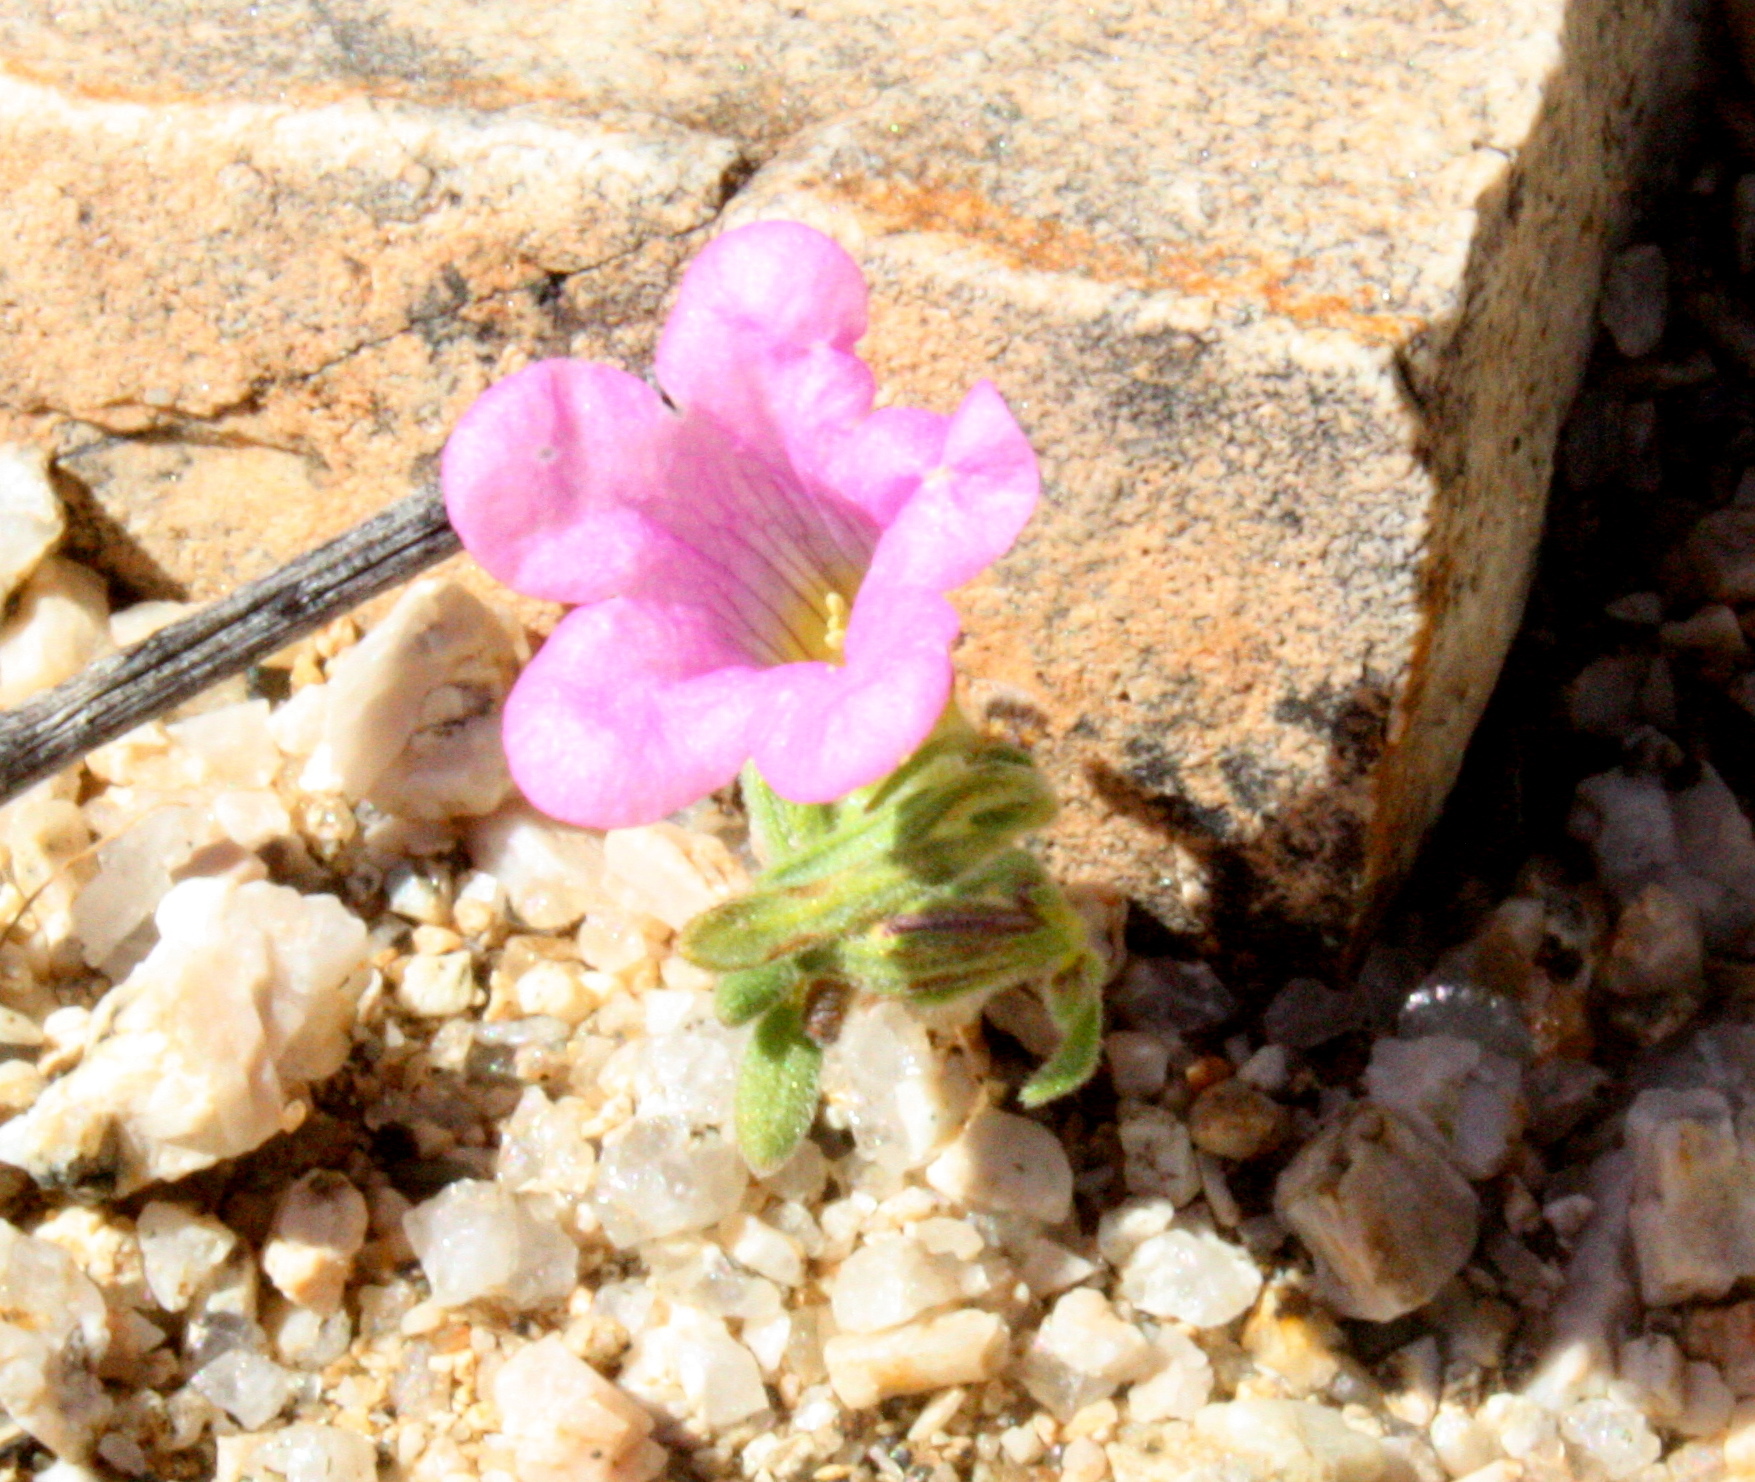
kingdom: Plantae
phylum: Tracheophyta
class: Magnoliopsida
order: Boraginales
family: Namaceae
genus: Nama
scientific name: Nama demissa
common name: Leafy nama
